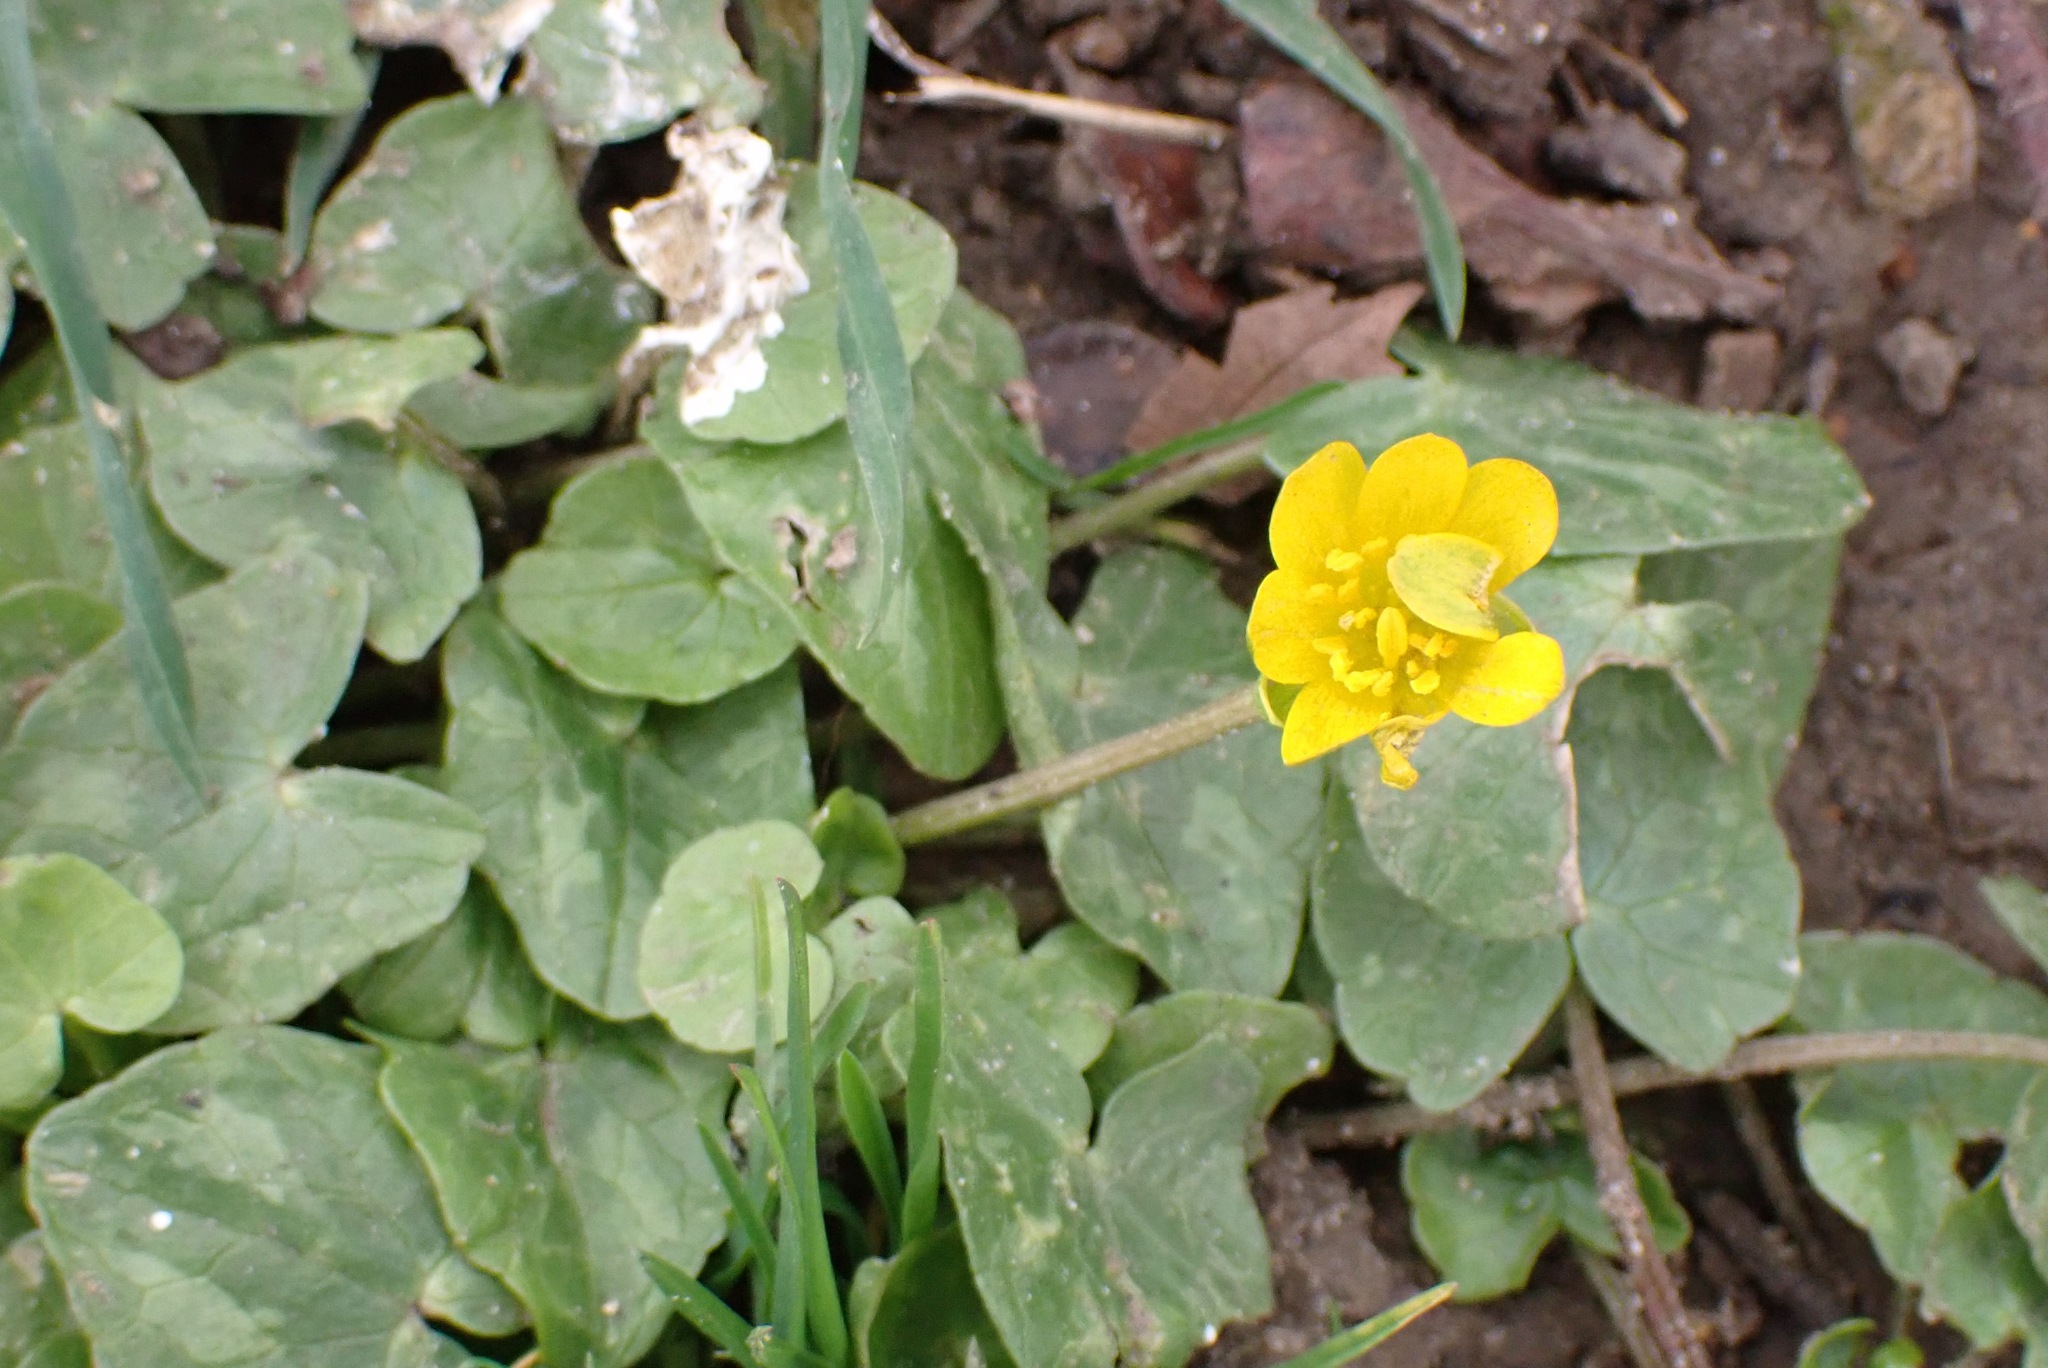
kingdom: Plantae
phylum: Tracheophyta
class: Magnoliopsida
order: Ranunculales
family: Ranunculaceae
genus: Ficaria
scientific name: Ficaria verna
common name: Lesser celandine
